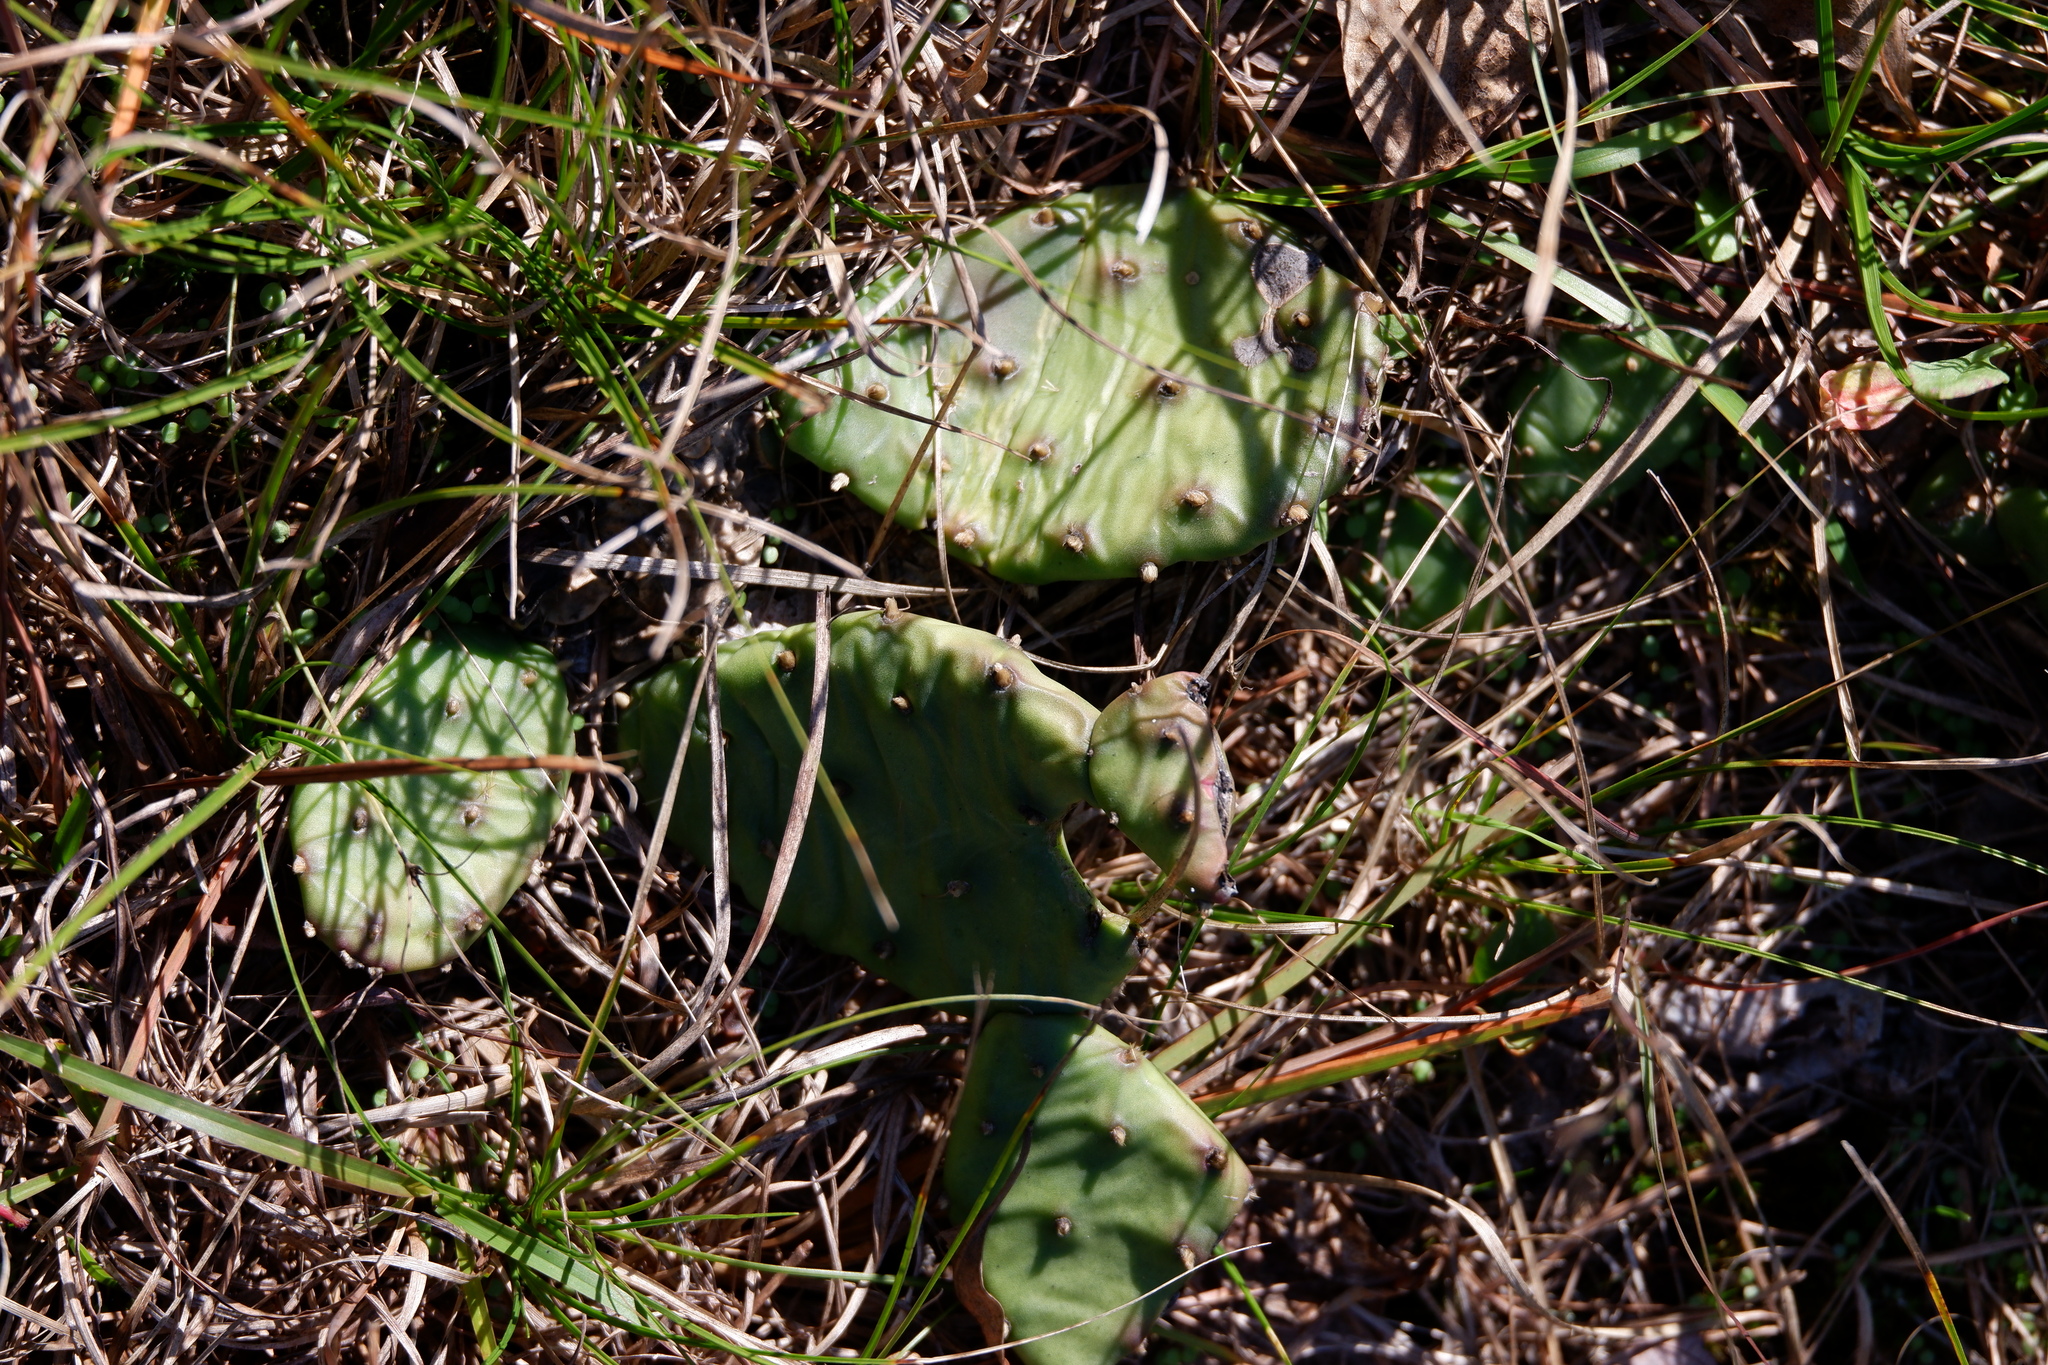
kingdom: Plantae
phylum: Tracheophyta
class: Magnoliopsida
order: Caryophyllales
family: Cactaceae
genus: Opuntia
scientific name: Opuntia humifusa
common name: Eastern prickly-pear
